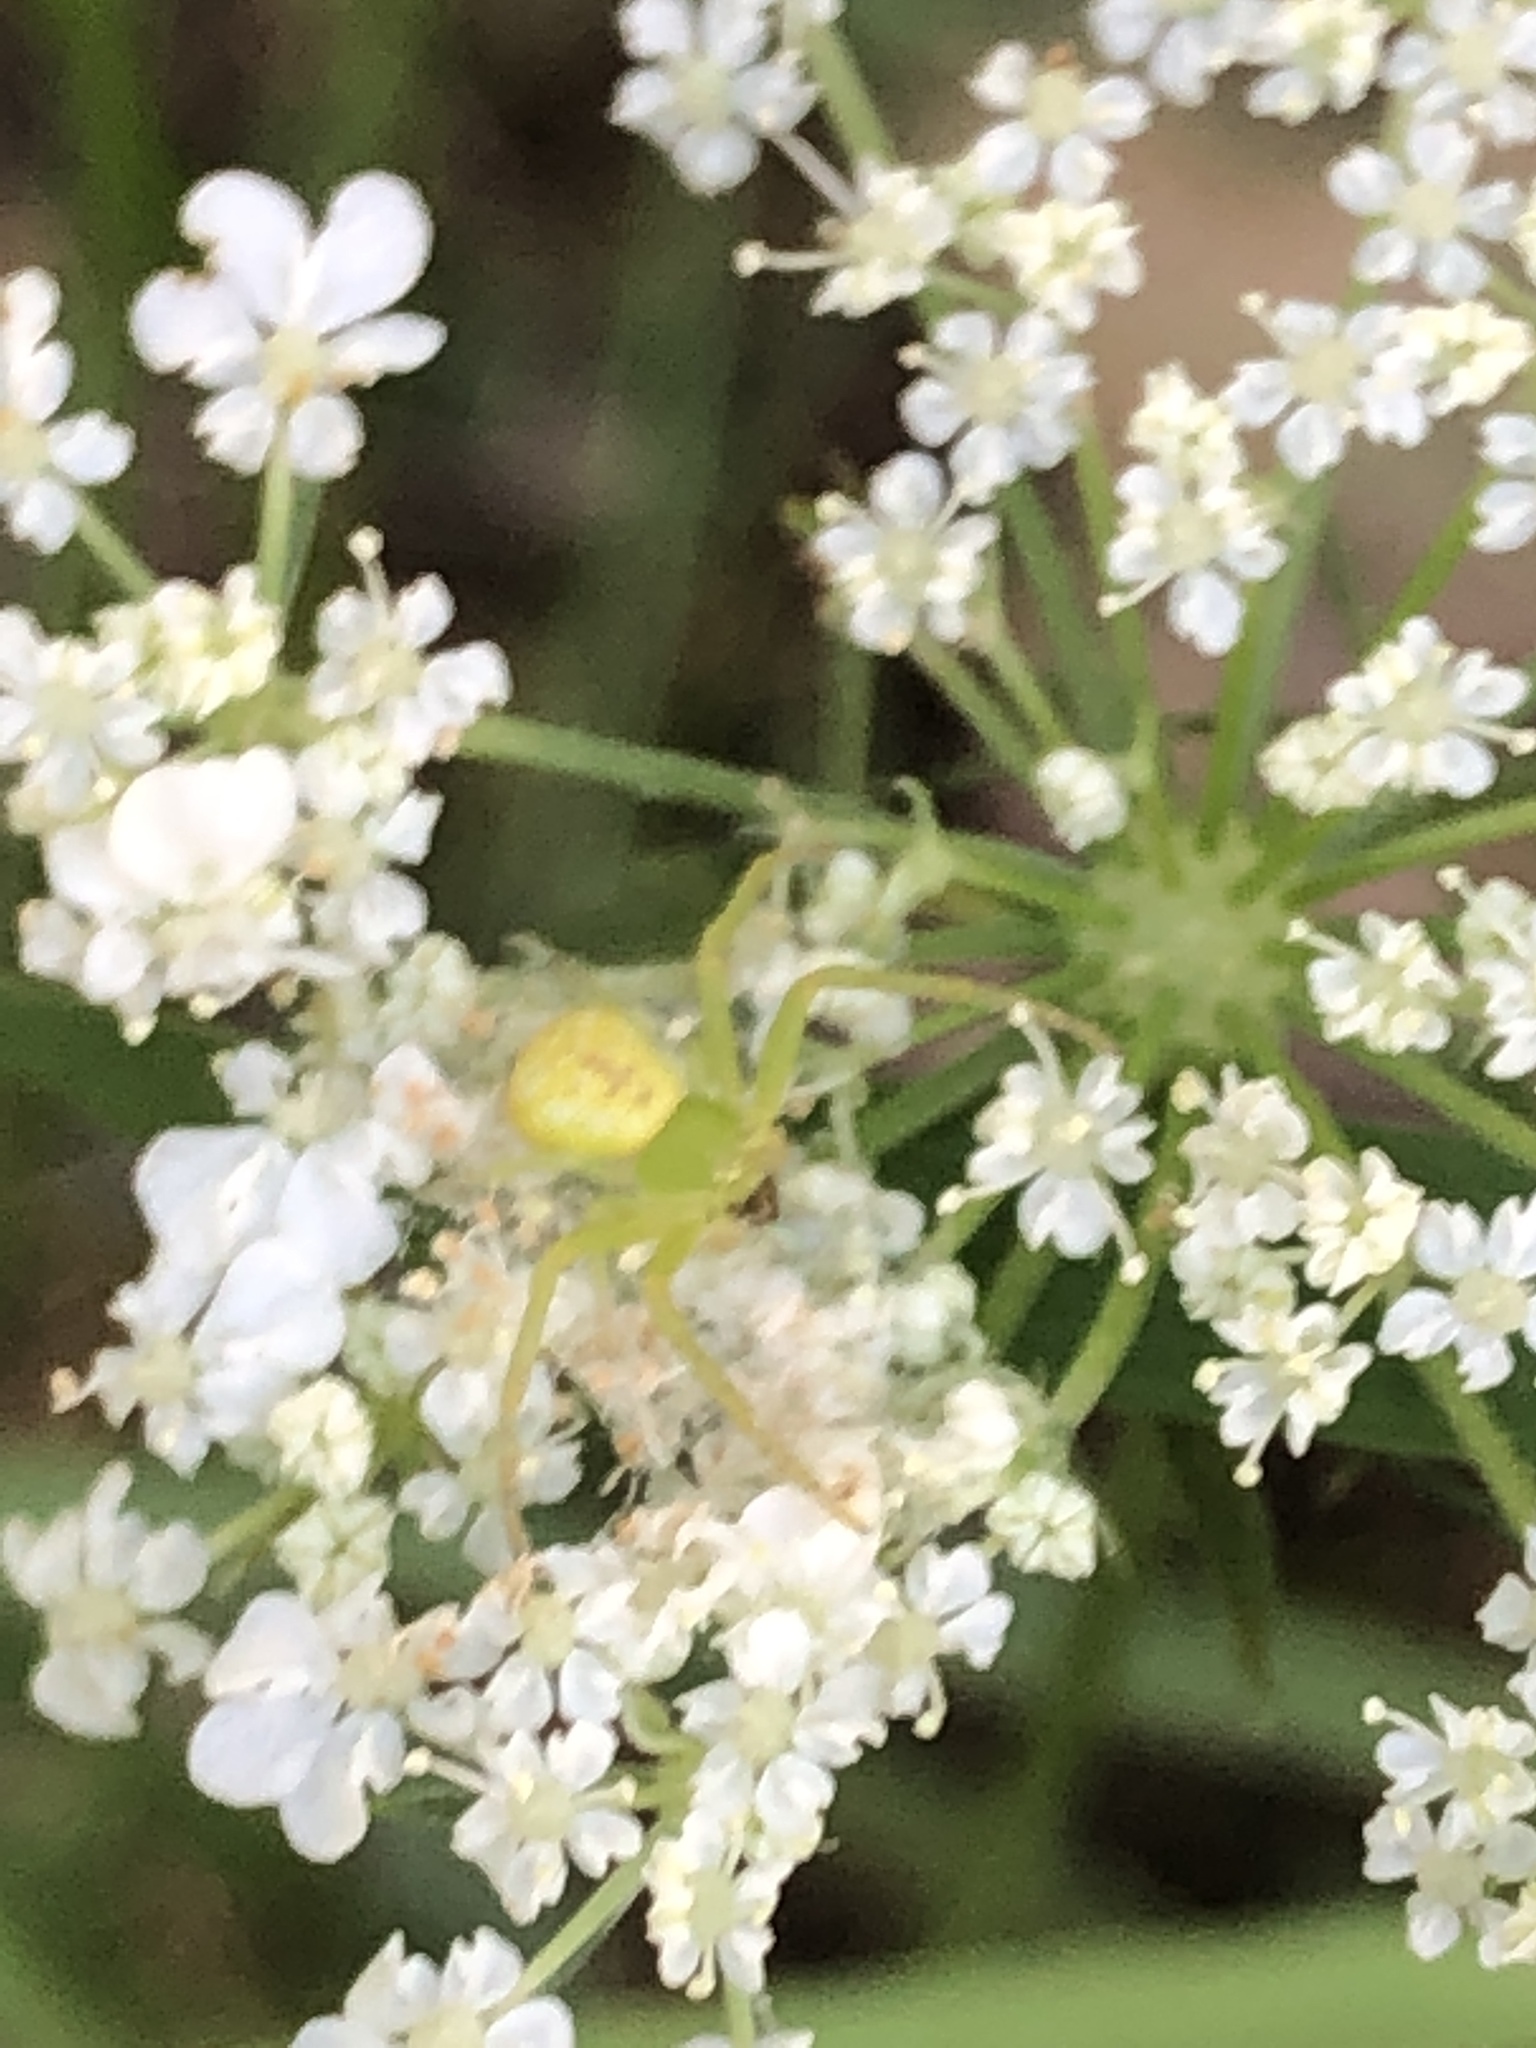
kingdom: Animalia
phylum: Arthropoda
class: Arachnida
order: Araneae
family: Thomisidae
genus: Ebrechtella
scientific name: Ebrechtella tricuspidata
